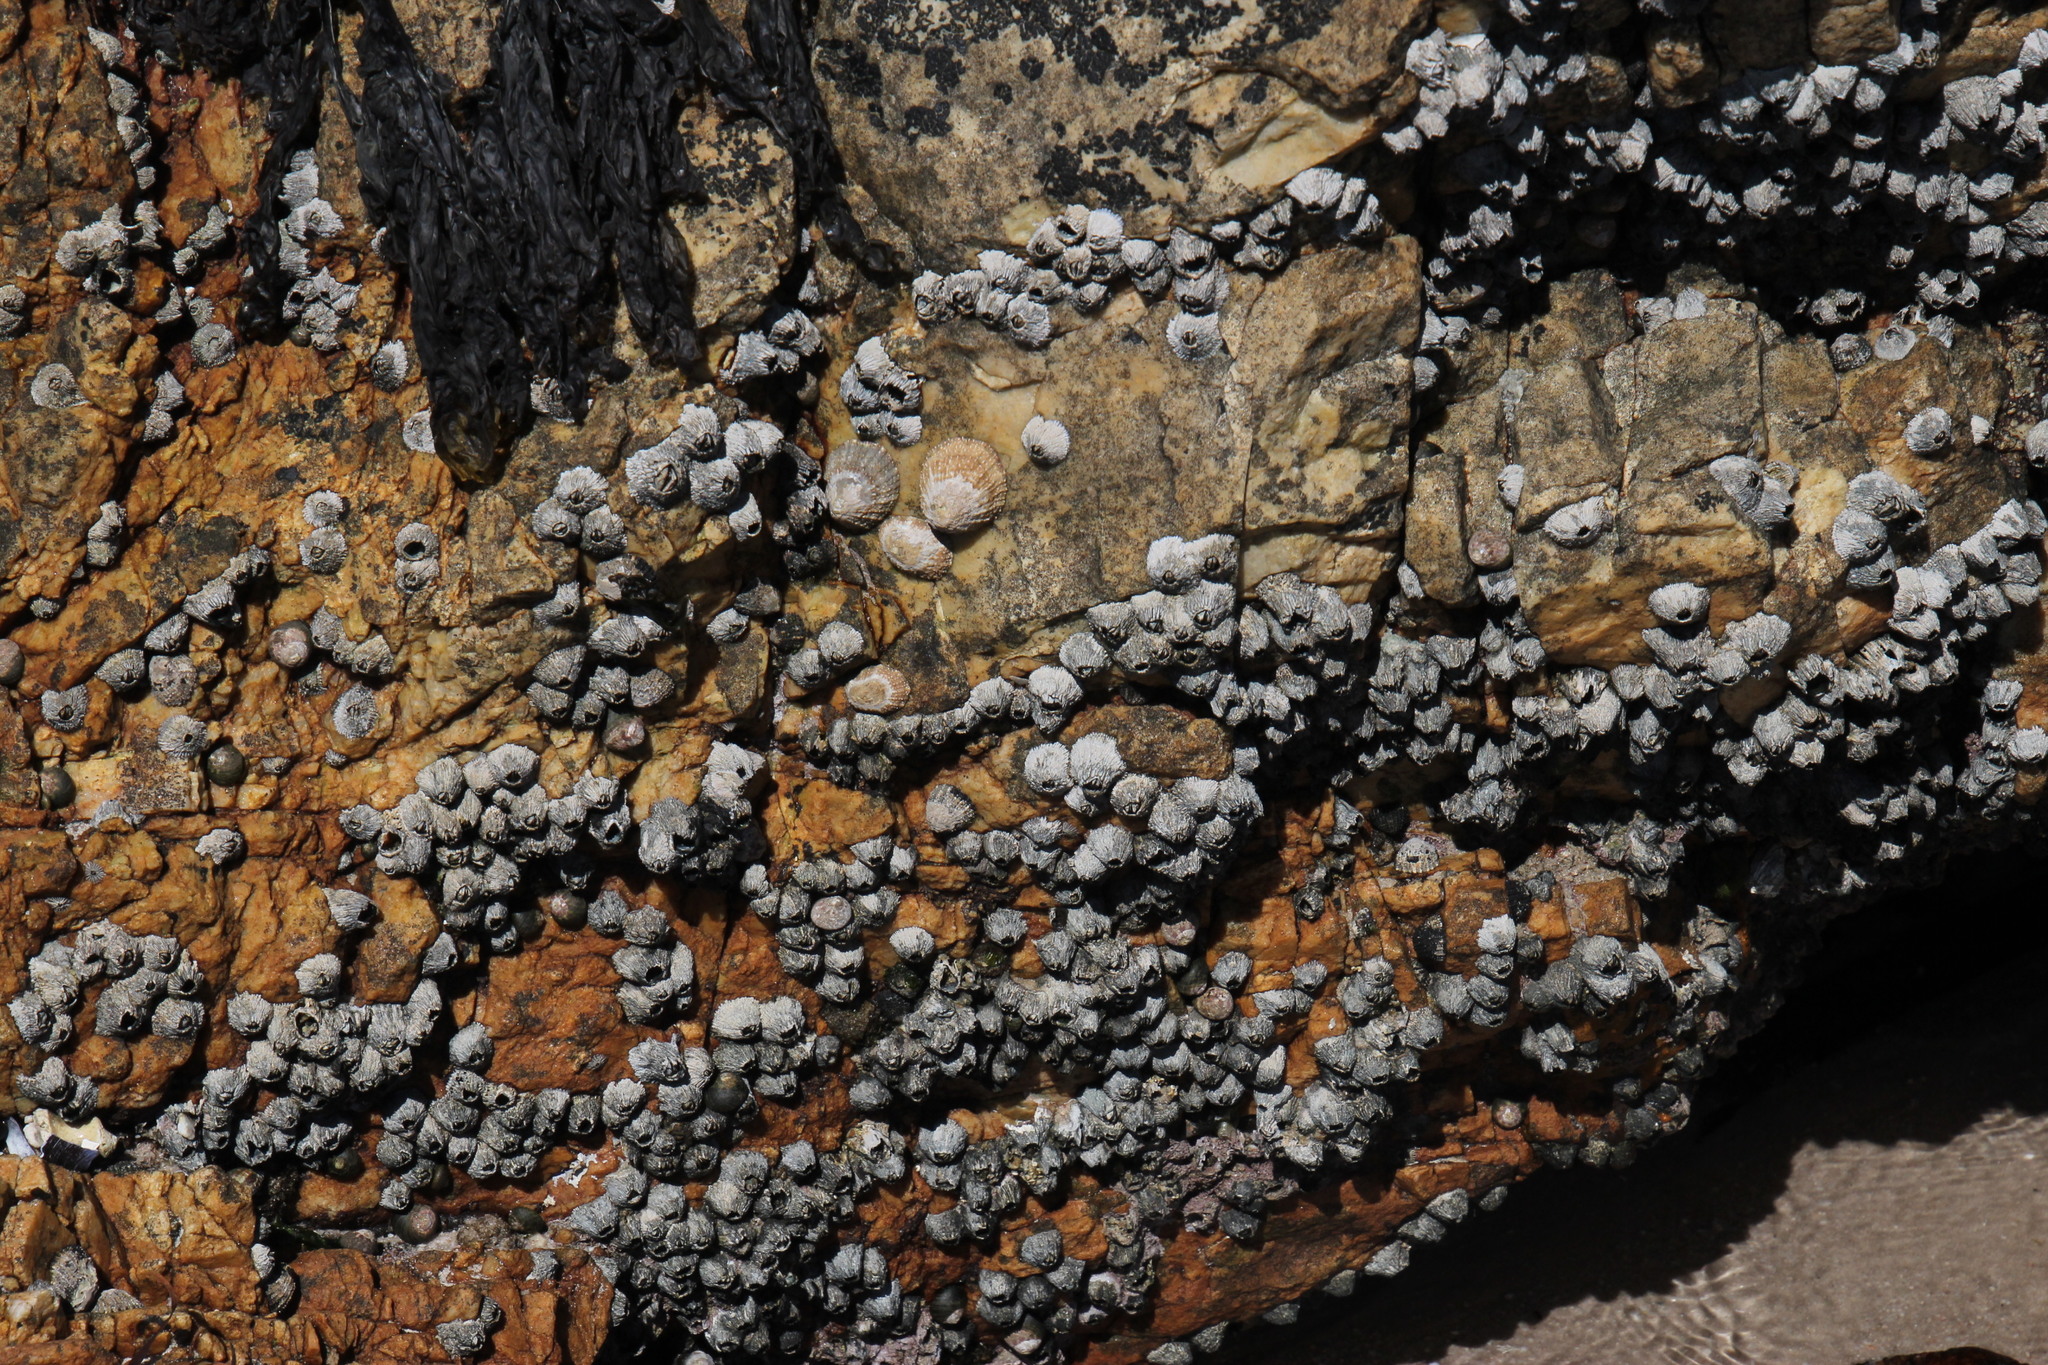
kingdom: Animalia
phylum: Arthropoda
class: Maxillopoda
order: Sessilia
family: Tetraclitidae
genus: Tetraclita
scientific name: Tetraclita serrata
